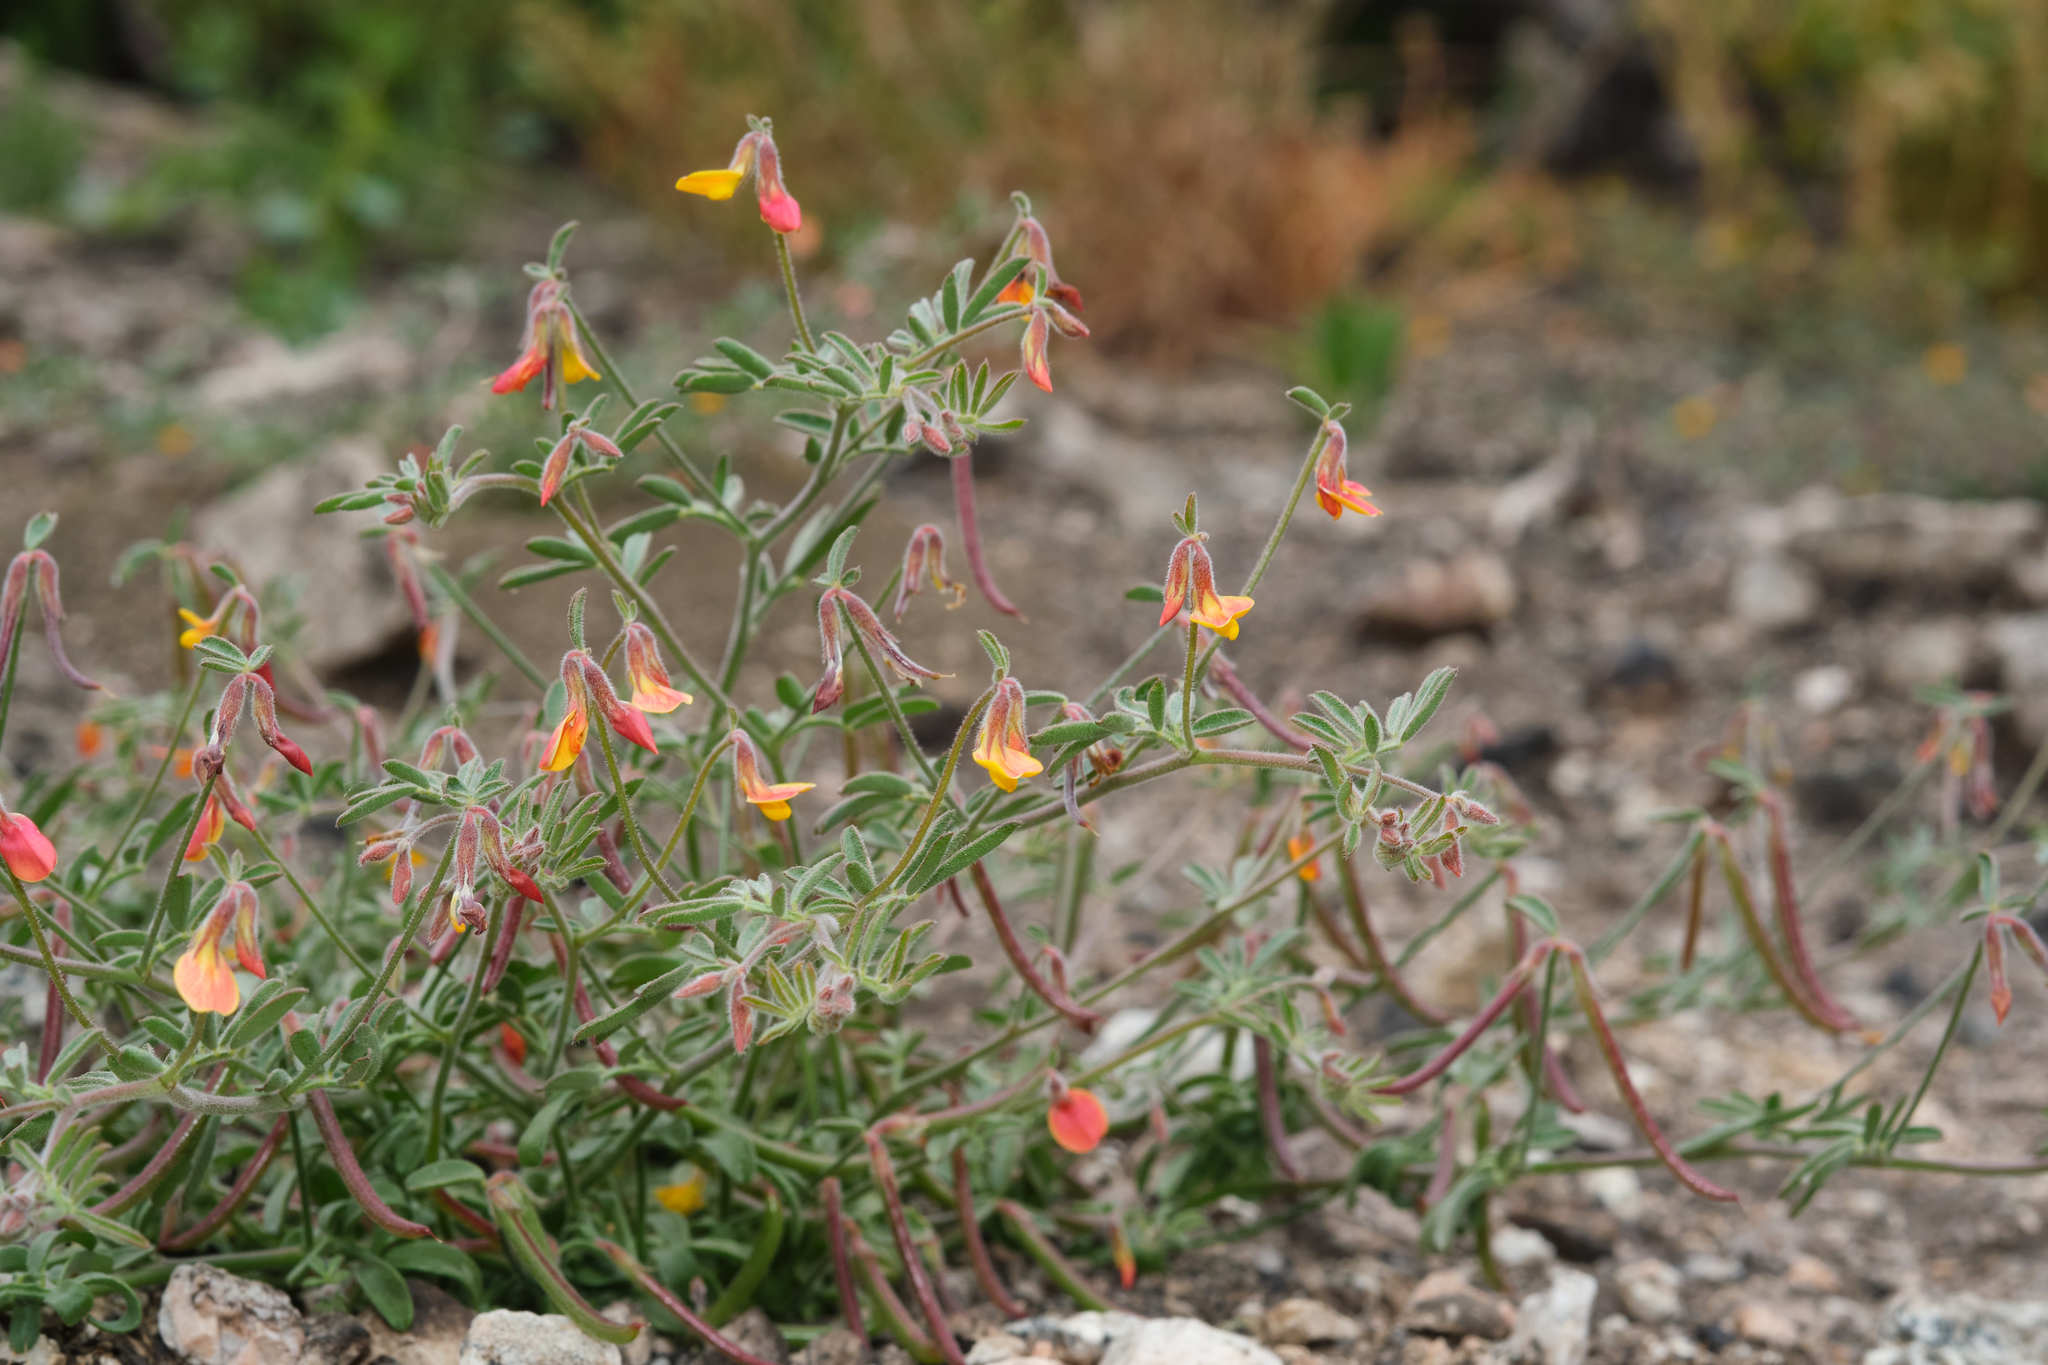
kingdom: Plantae
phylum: Tracheophyta
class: Magnoliopsida
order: Fabales
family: Fabaceae
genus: Acmispon
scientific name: Acmispon strigosus
